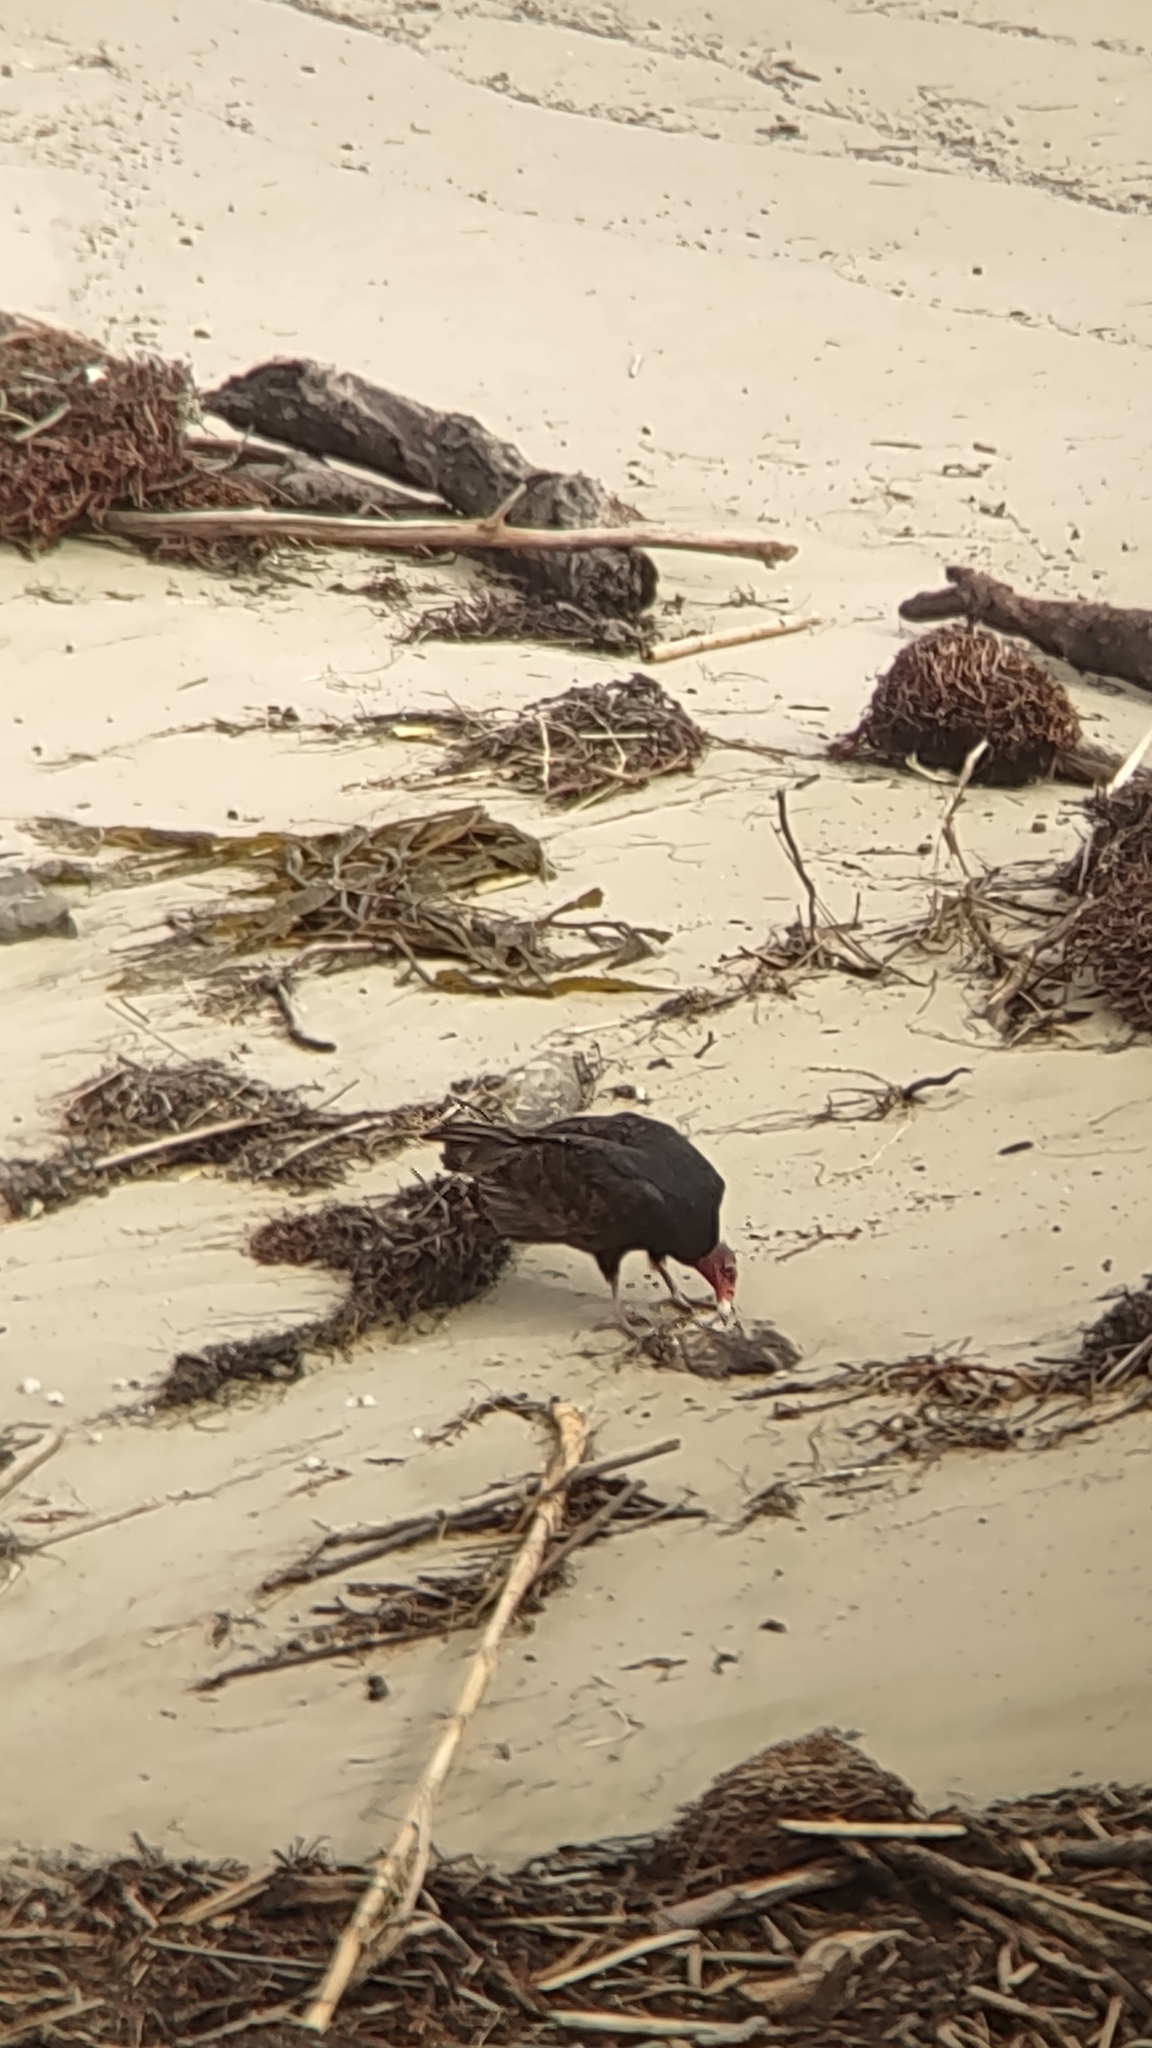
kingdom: Animalia
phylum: Chordata
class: Aves
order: Accipitriformes
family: Cathartidae
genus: Cathartes
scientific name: Cathartes aura
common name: Turkey vulture
